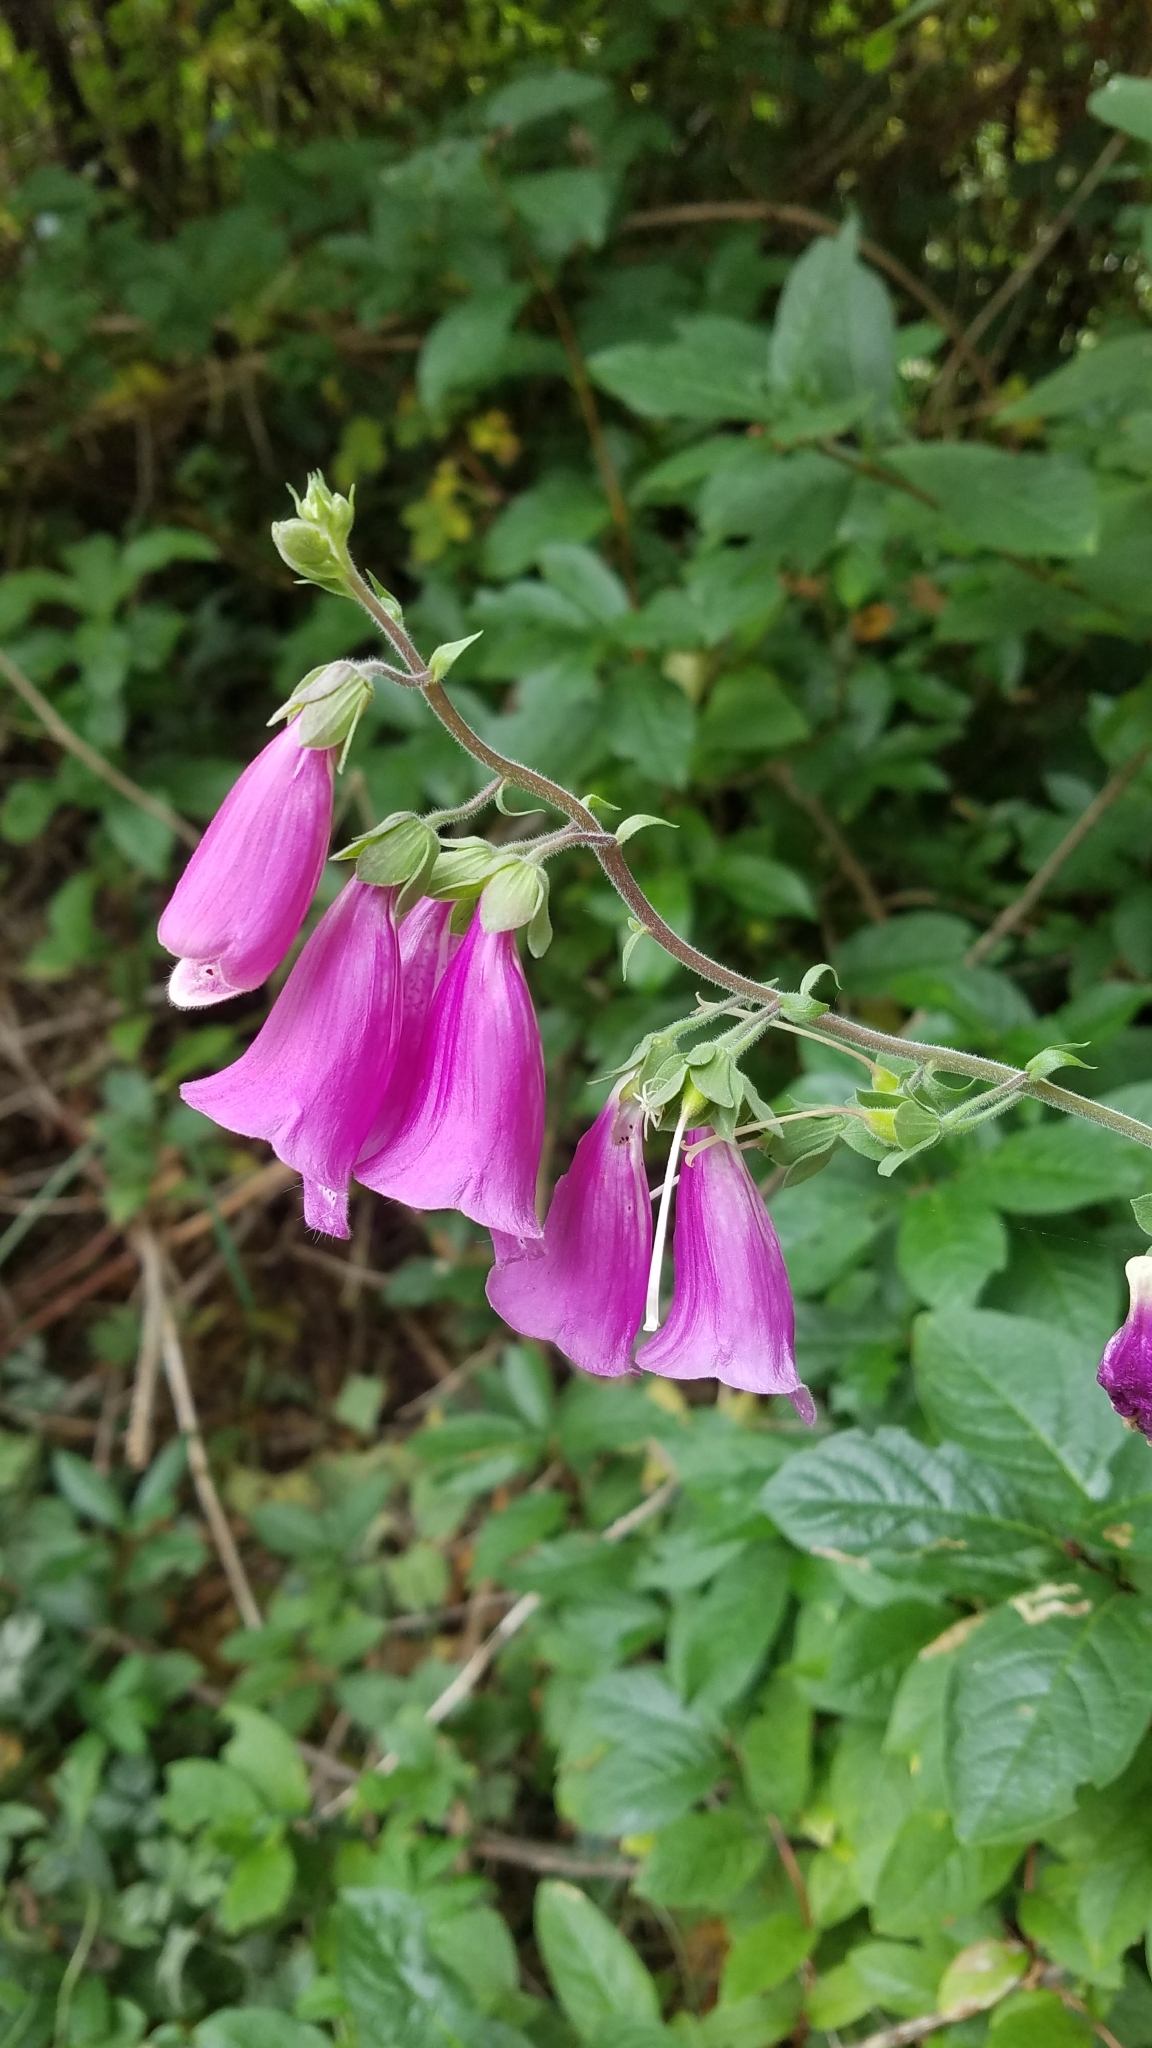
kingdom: Plantae
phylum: Tracheophyta
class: Magnoliopsida
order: Lamiales
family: Plantaginaceae
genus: Digitalis
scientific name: Digitalis purpurea
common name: Foxglove
